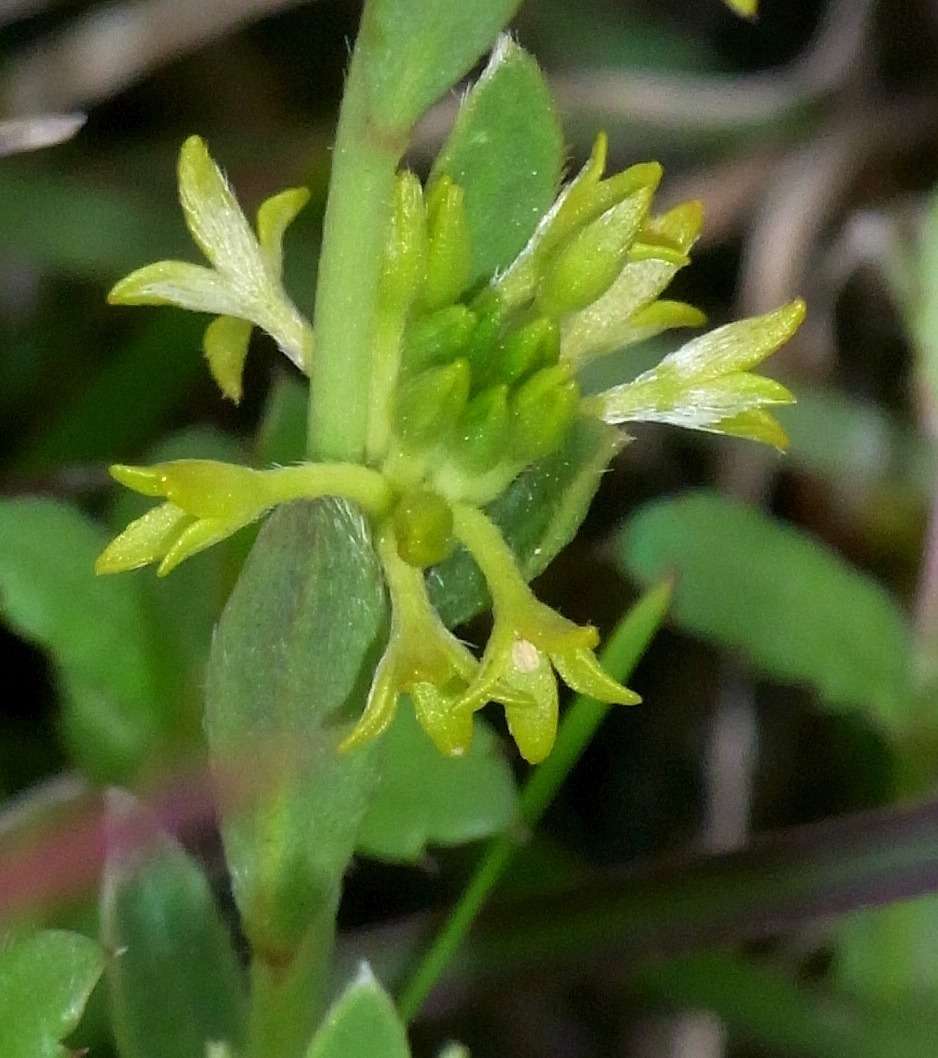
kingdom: Plantae
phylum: Tracheophyta
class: Magnoliopsida
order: Malvales
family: Thymelaeaceae
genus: Pimelea
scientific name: Pimelea curviflora
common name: Curved riceflower
